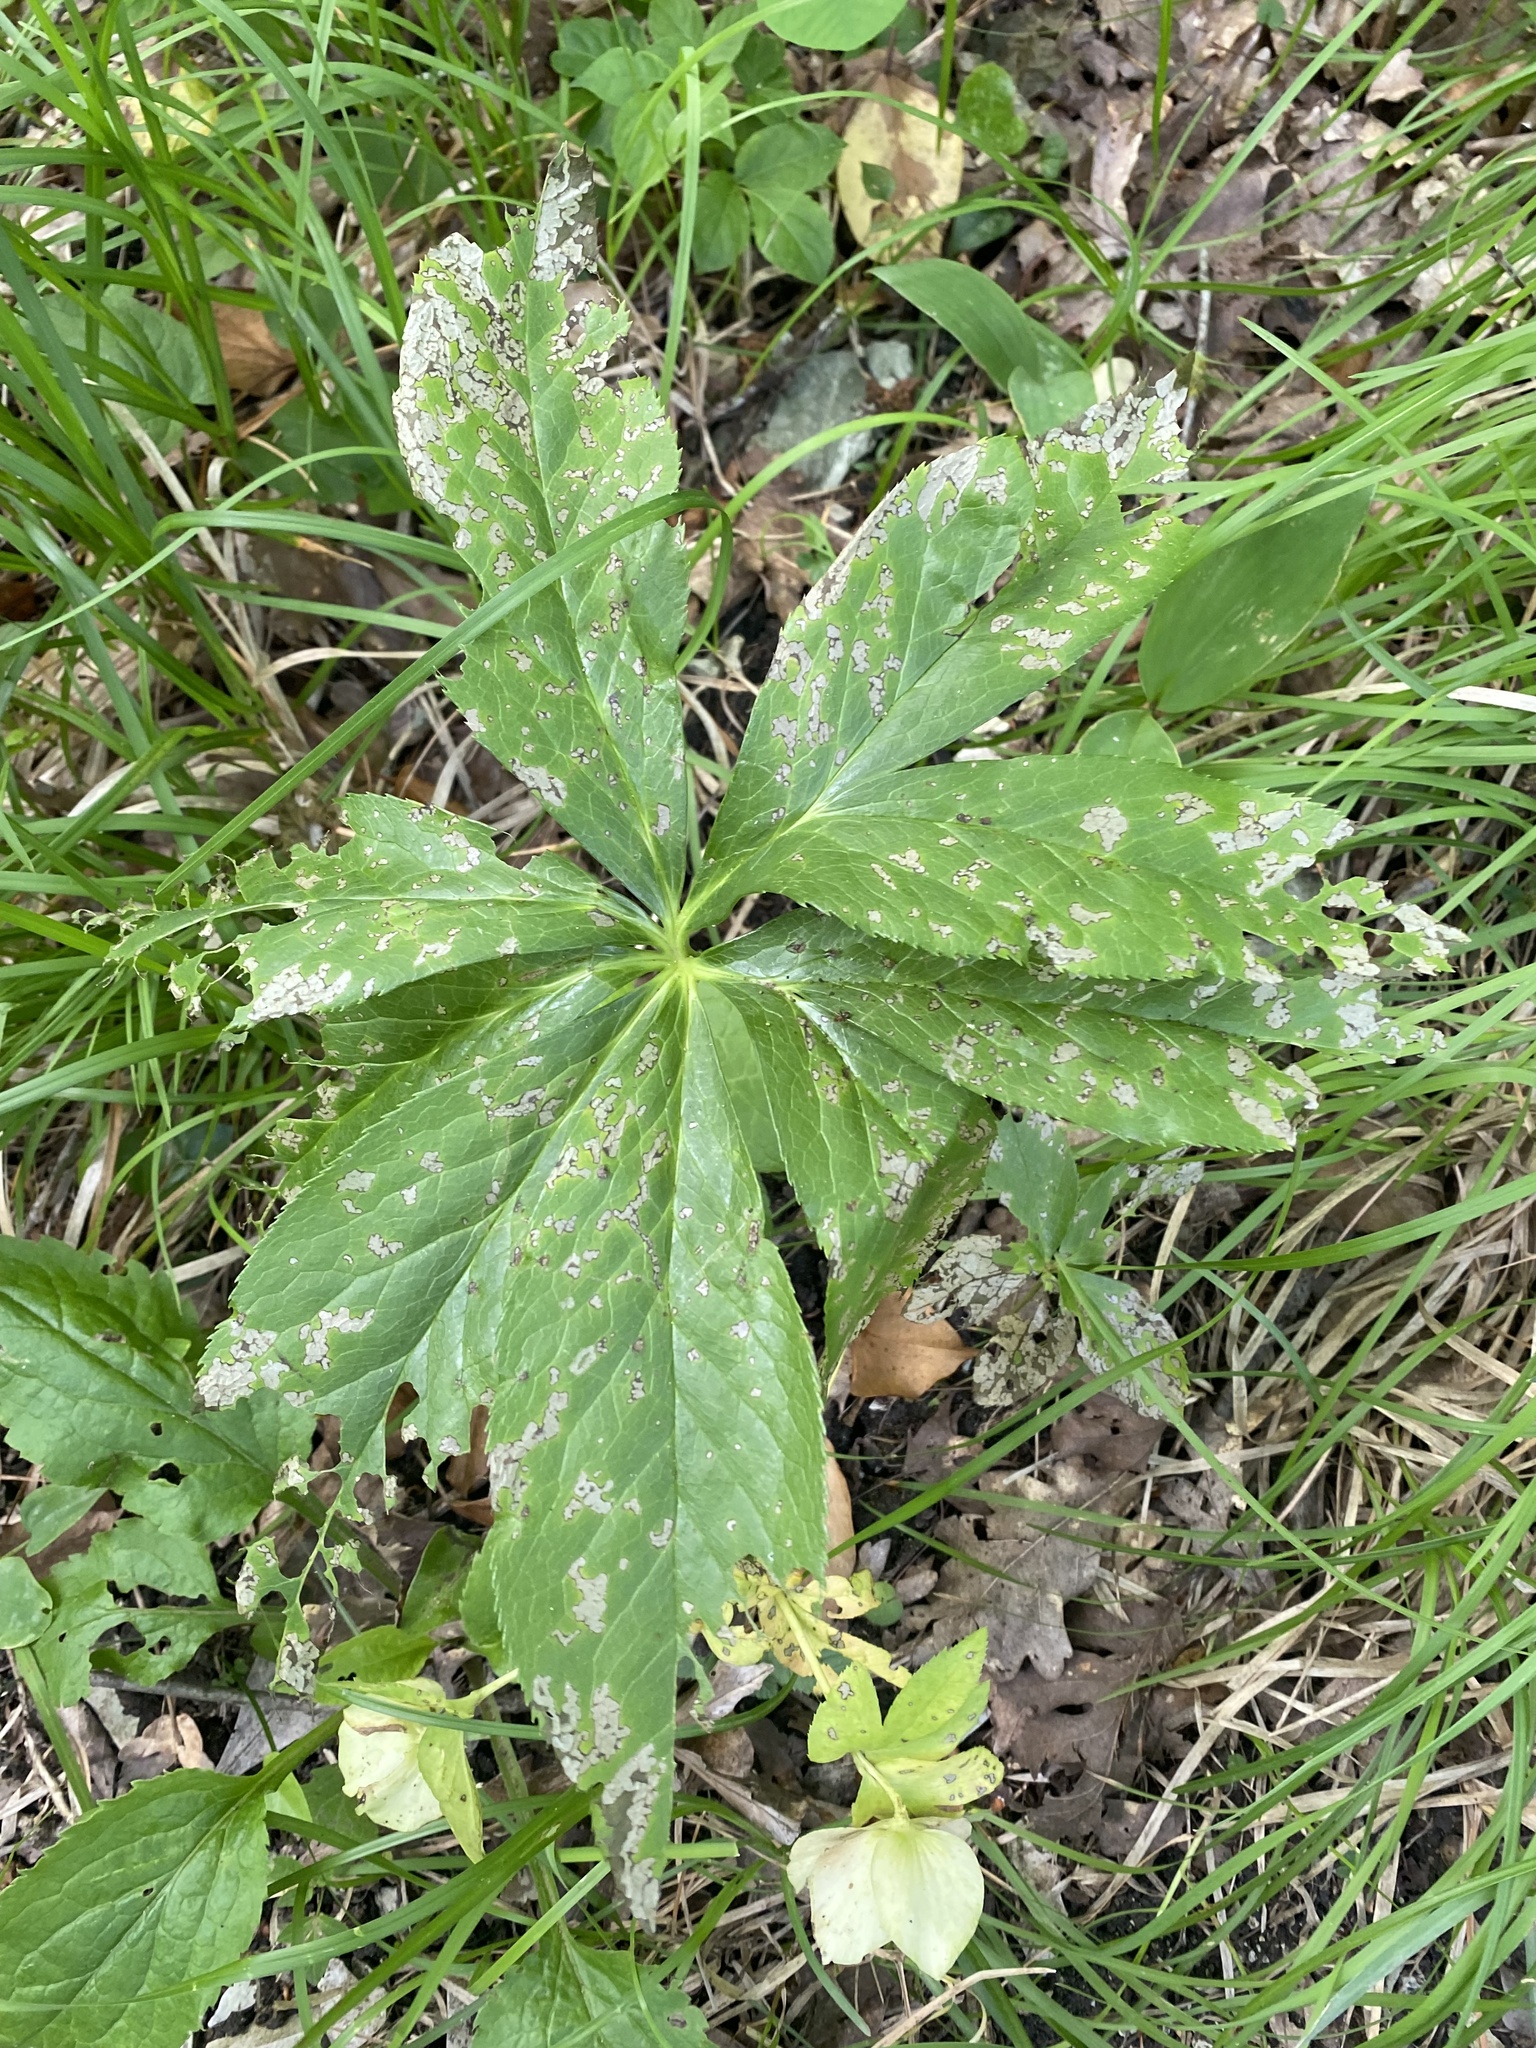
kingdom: Plantae
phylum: Tracheophyta
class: Magnoliopsida
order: Ranunculales
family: Ranunculaceae
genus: Helleborus
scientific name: Helleborus orientalis
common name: Lenten-rose
